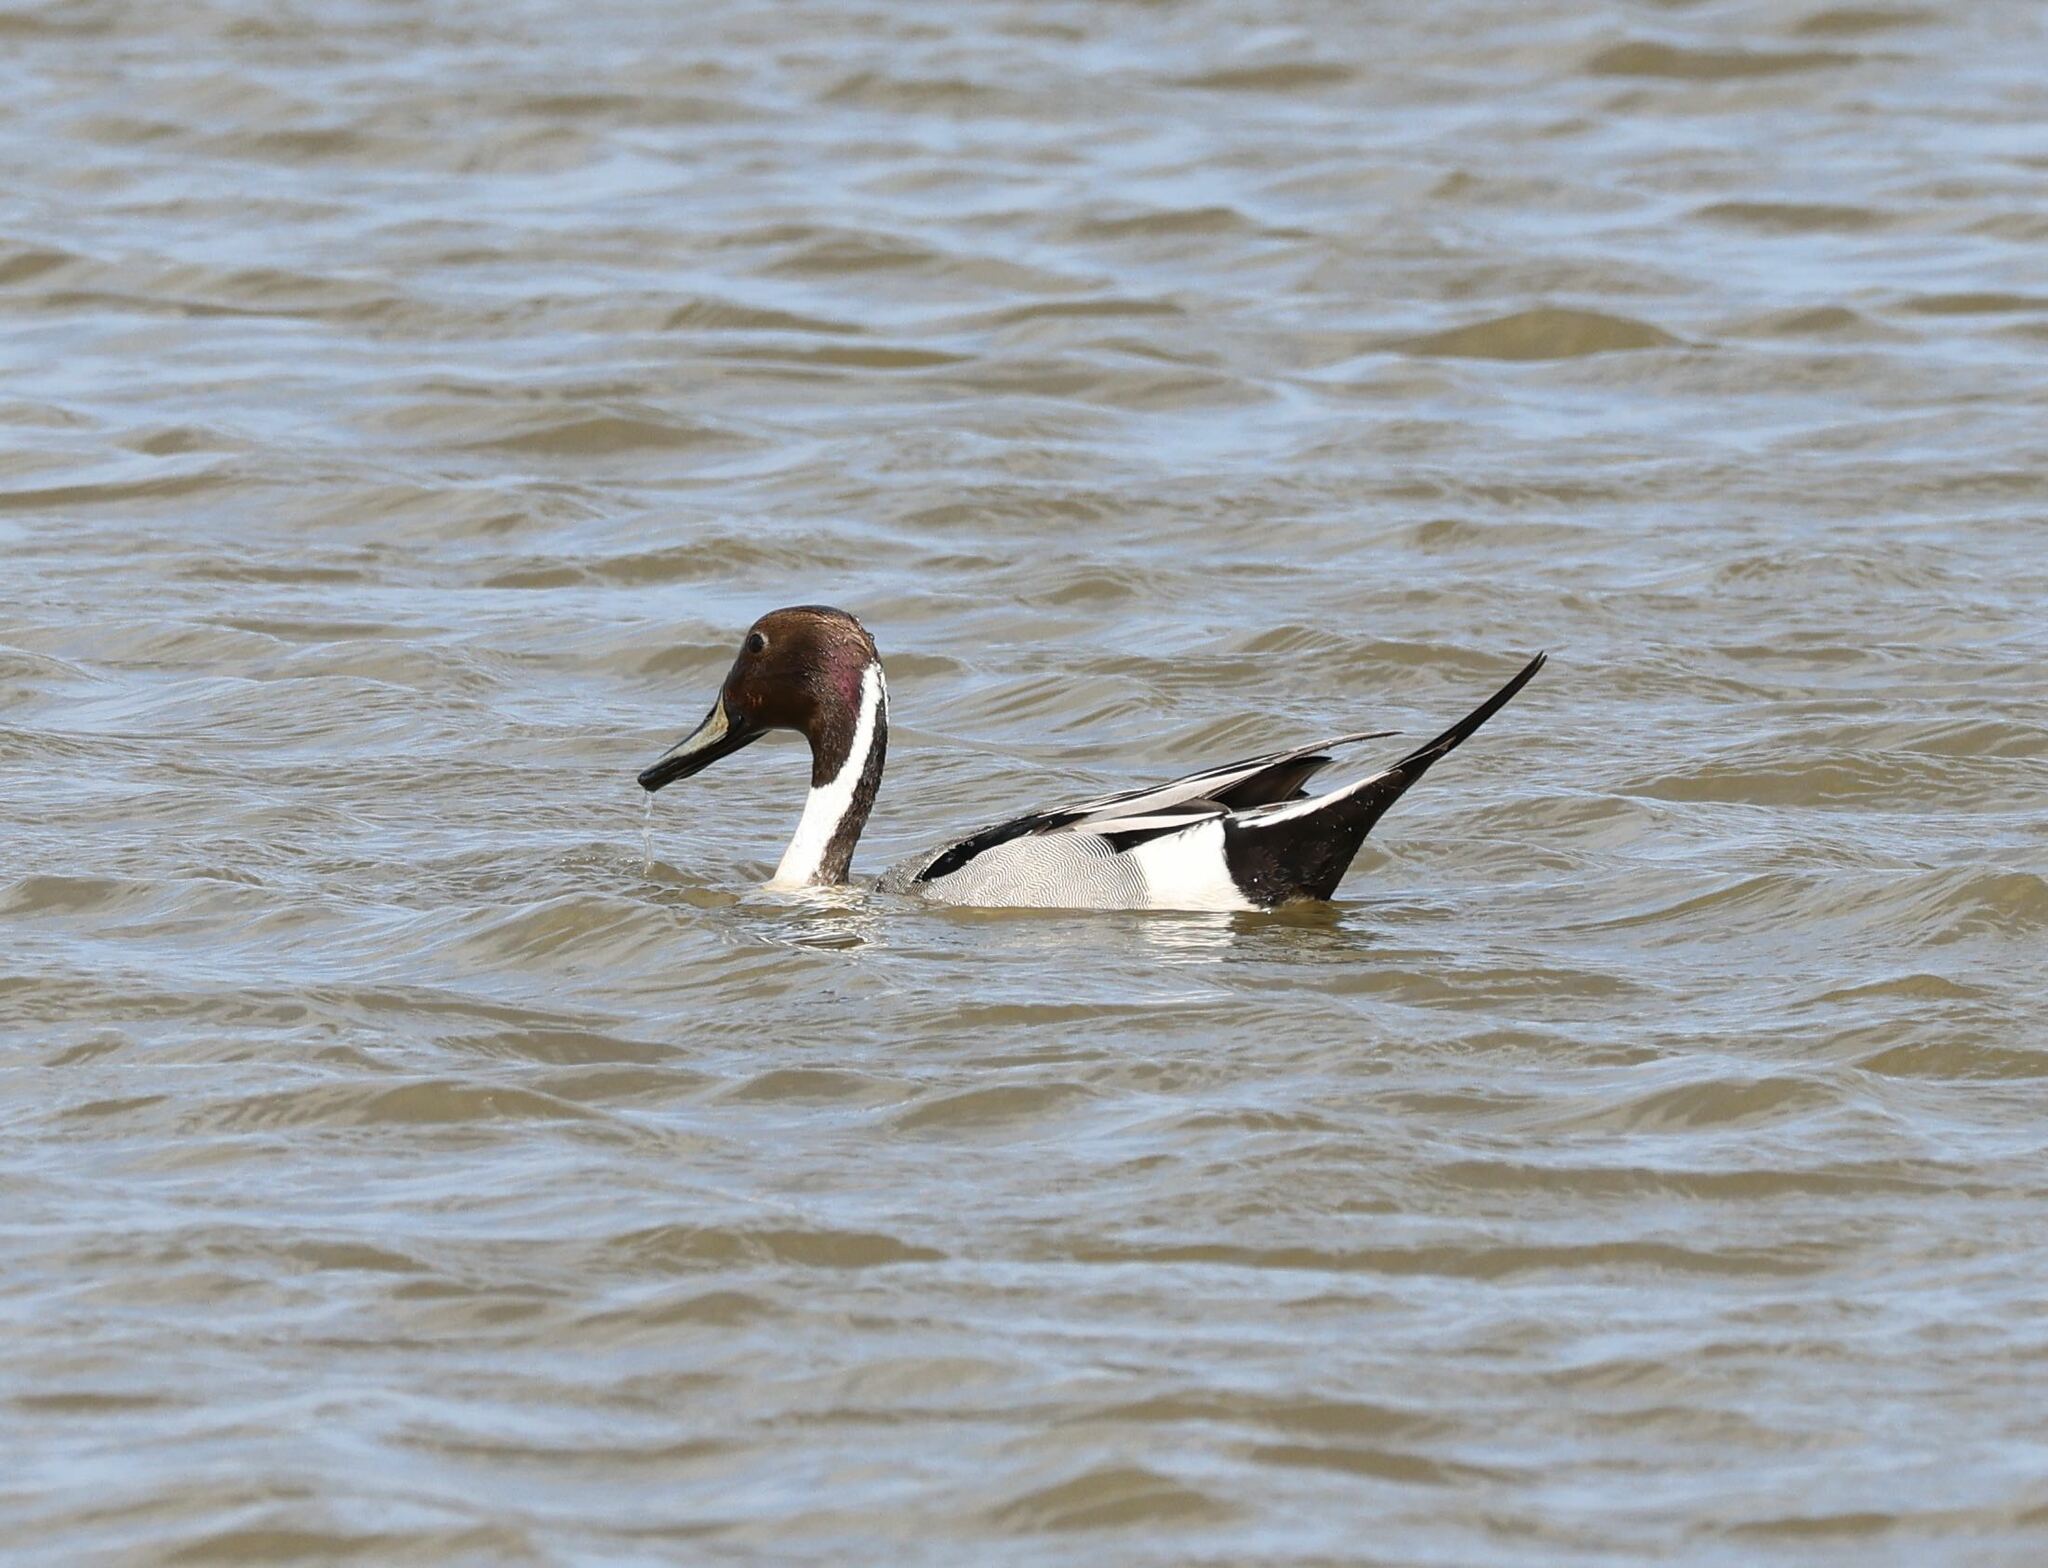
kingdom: Animalia
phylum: Chordata
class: Aves
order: Anseriformes
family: Anatidae
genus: Anas
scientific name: Anas acuta
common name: Northern pintail
